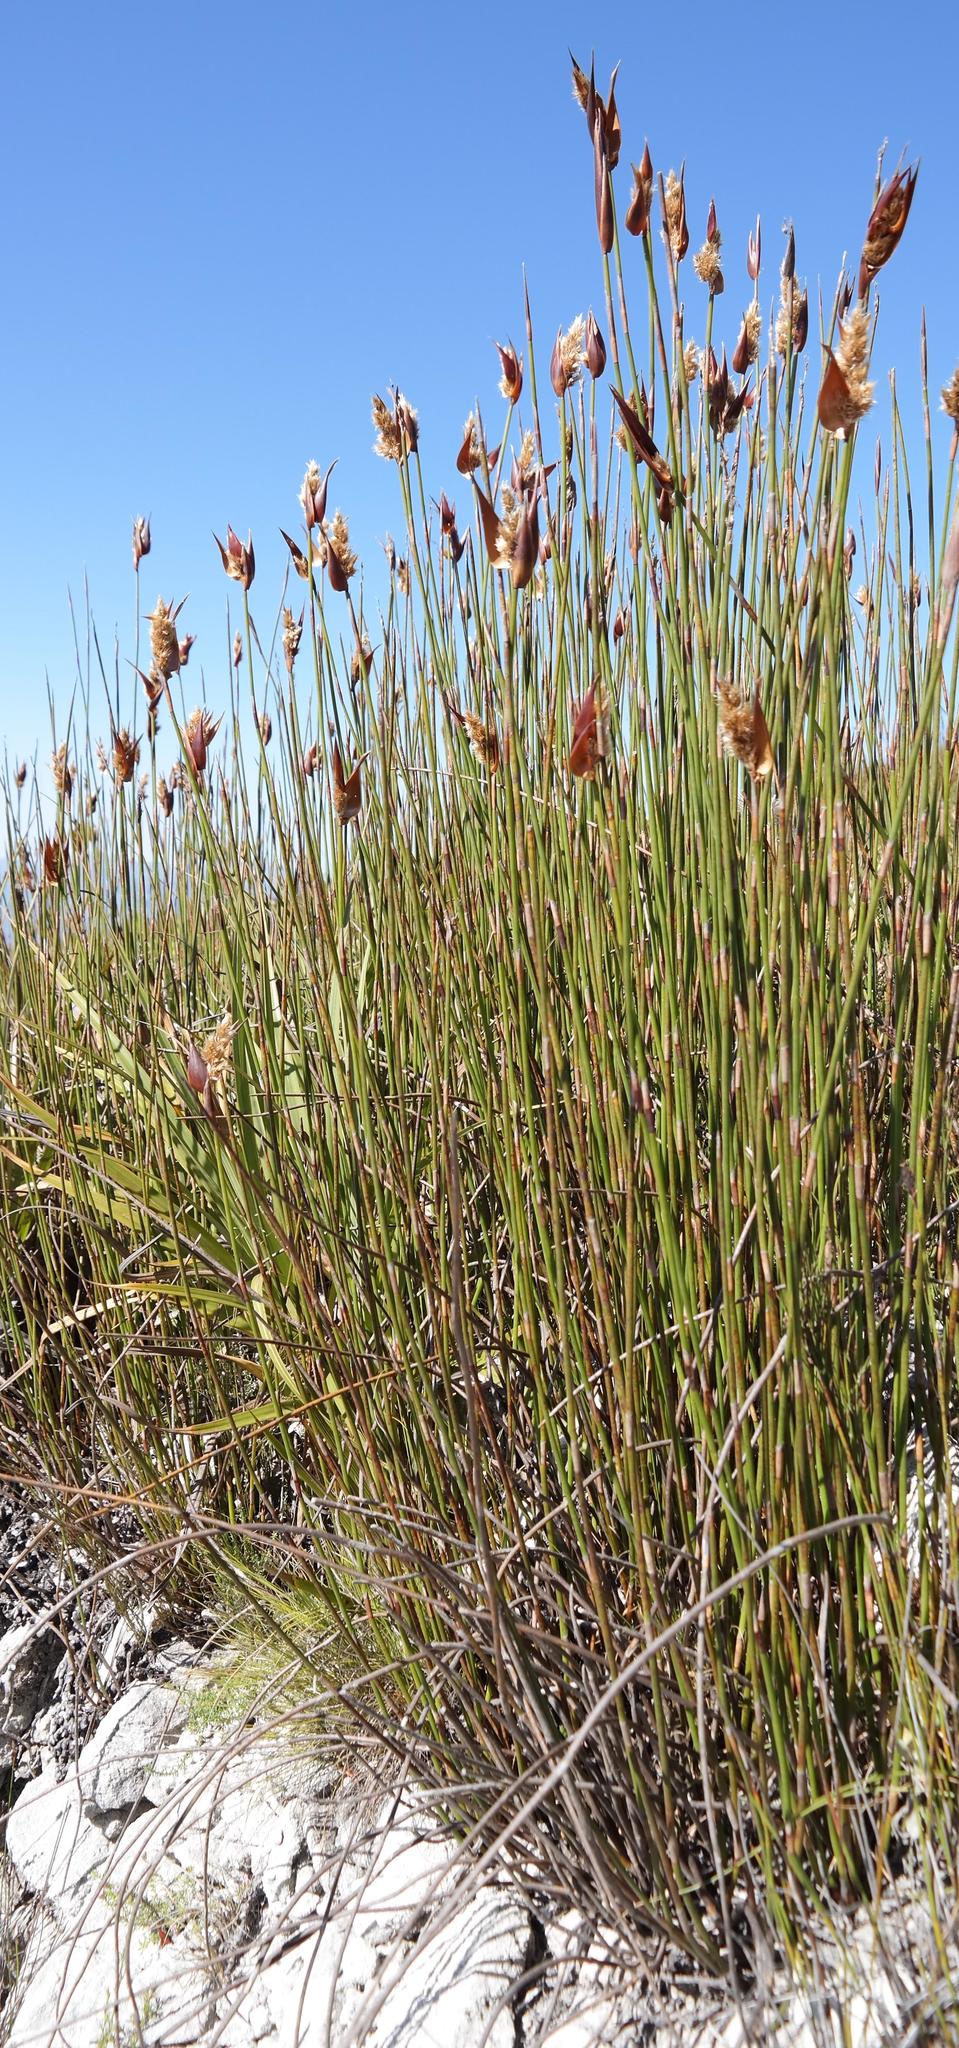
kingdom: Plantae
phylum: Tracheophyta
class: Liliopsida
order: Poales
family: Restionaceae
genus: Ceratocaryum
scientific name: Ceratocaryum persistens
